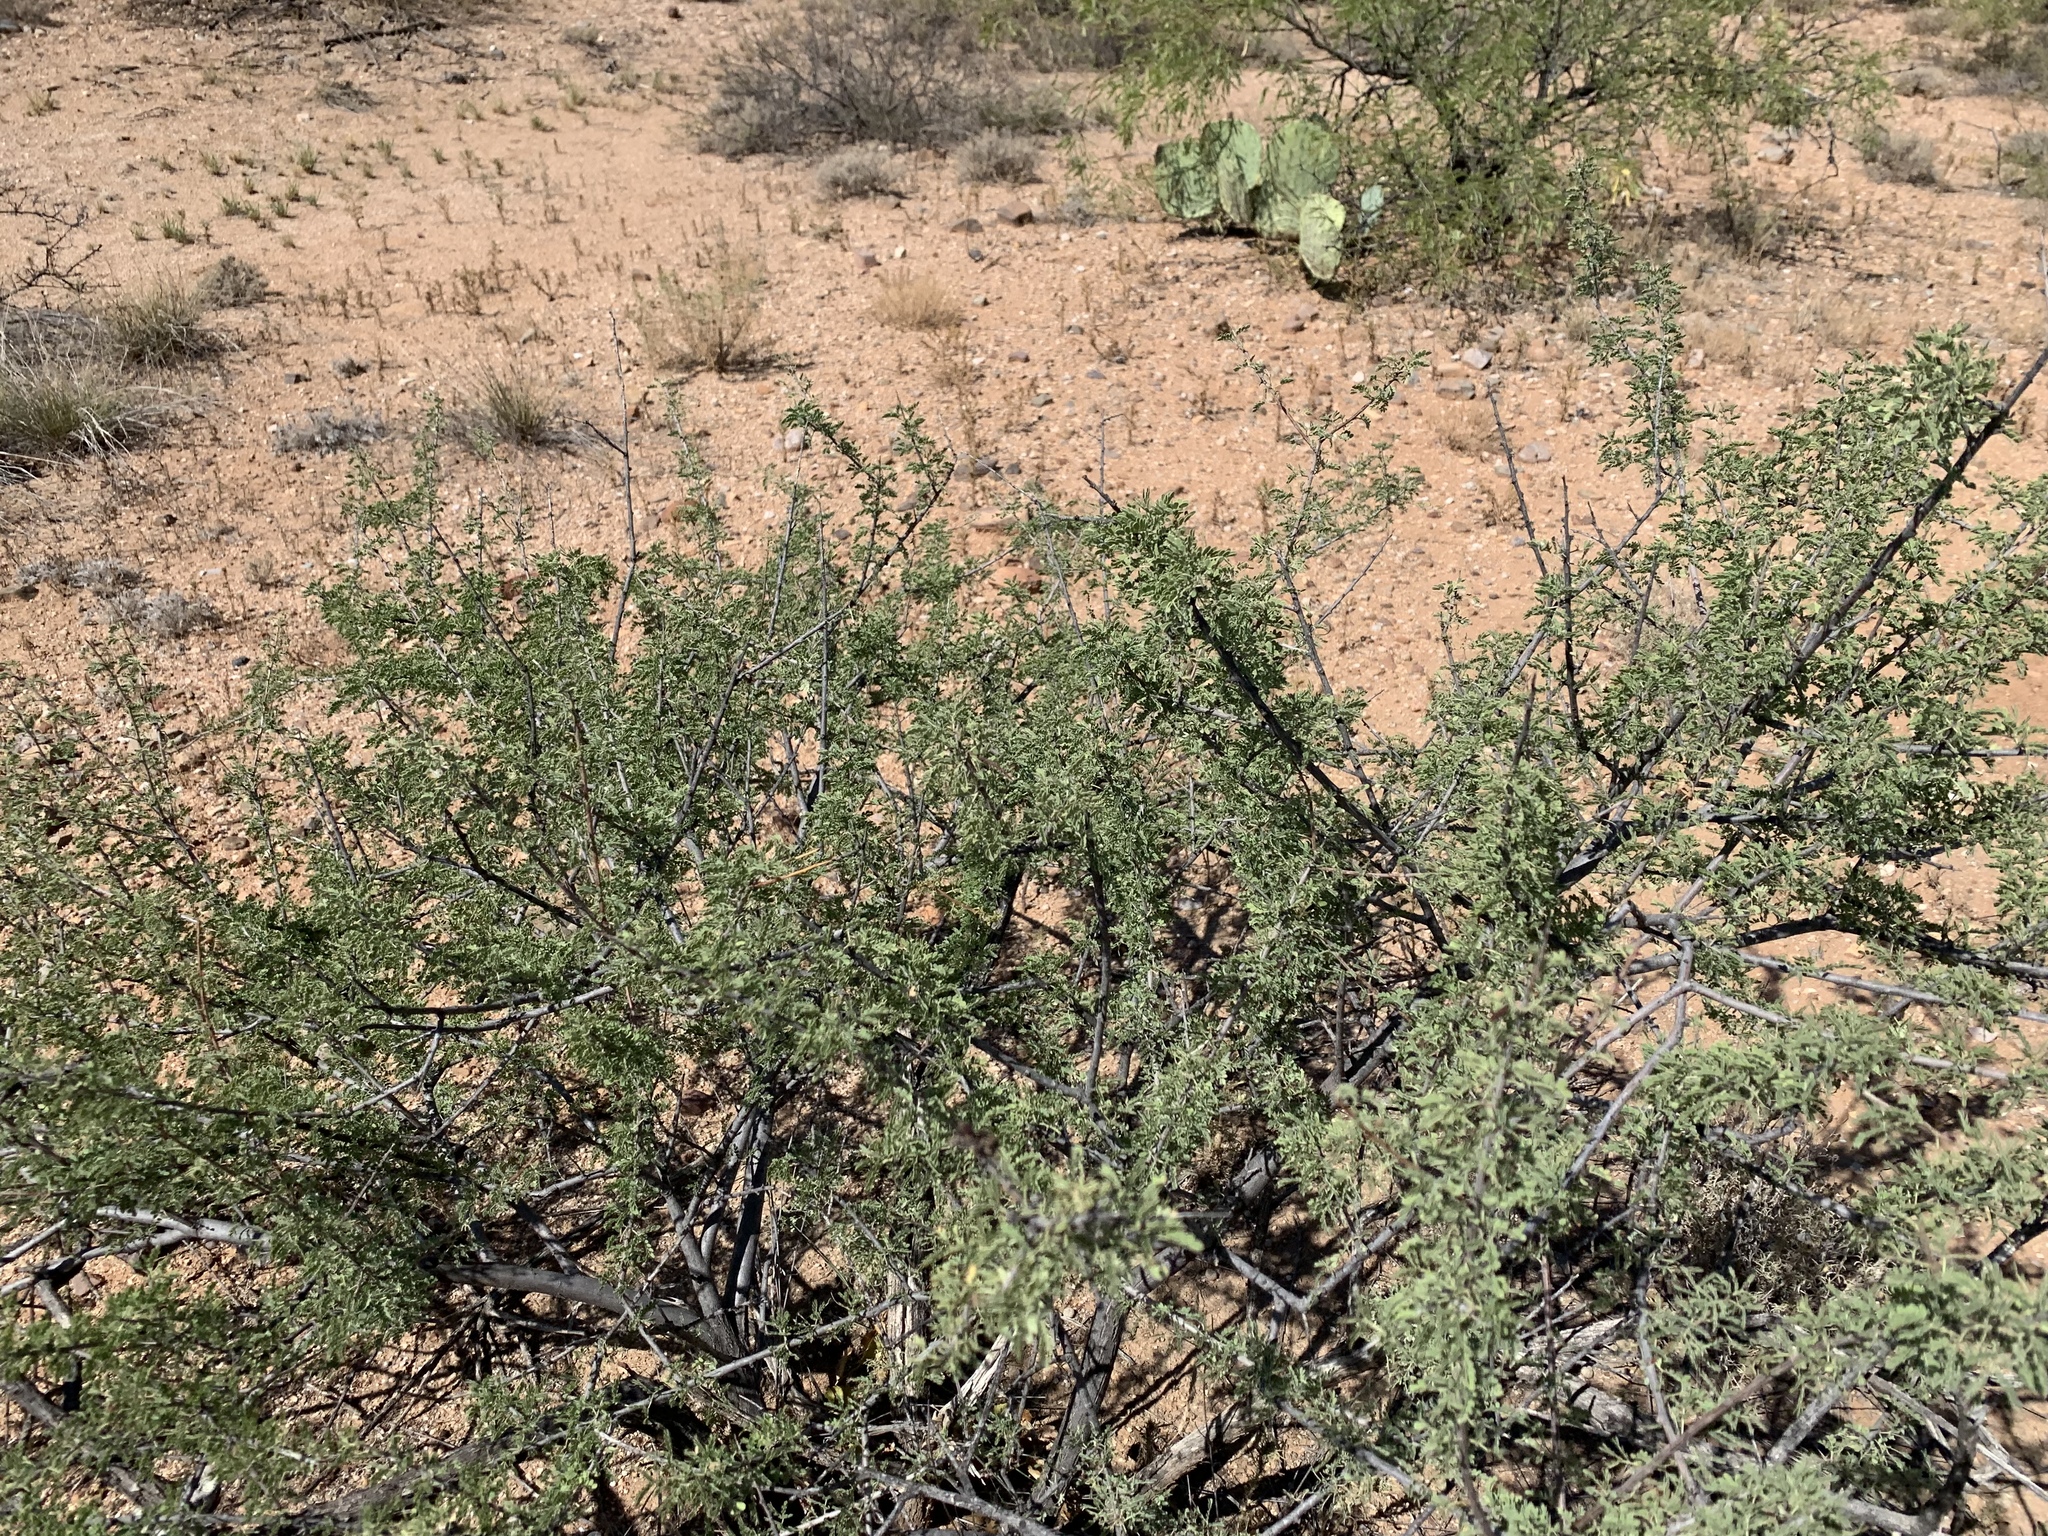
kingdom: Plantae
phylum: Tracheophyta
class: Magnoliopsida
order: Fabales
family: Fabaceae
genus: Senegalia
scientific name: Senegalia greggii
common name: Texas-mimosa
